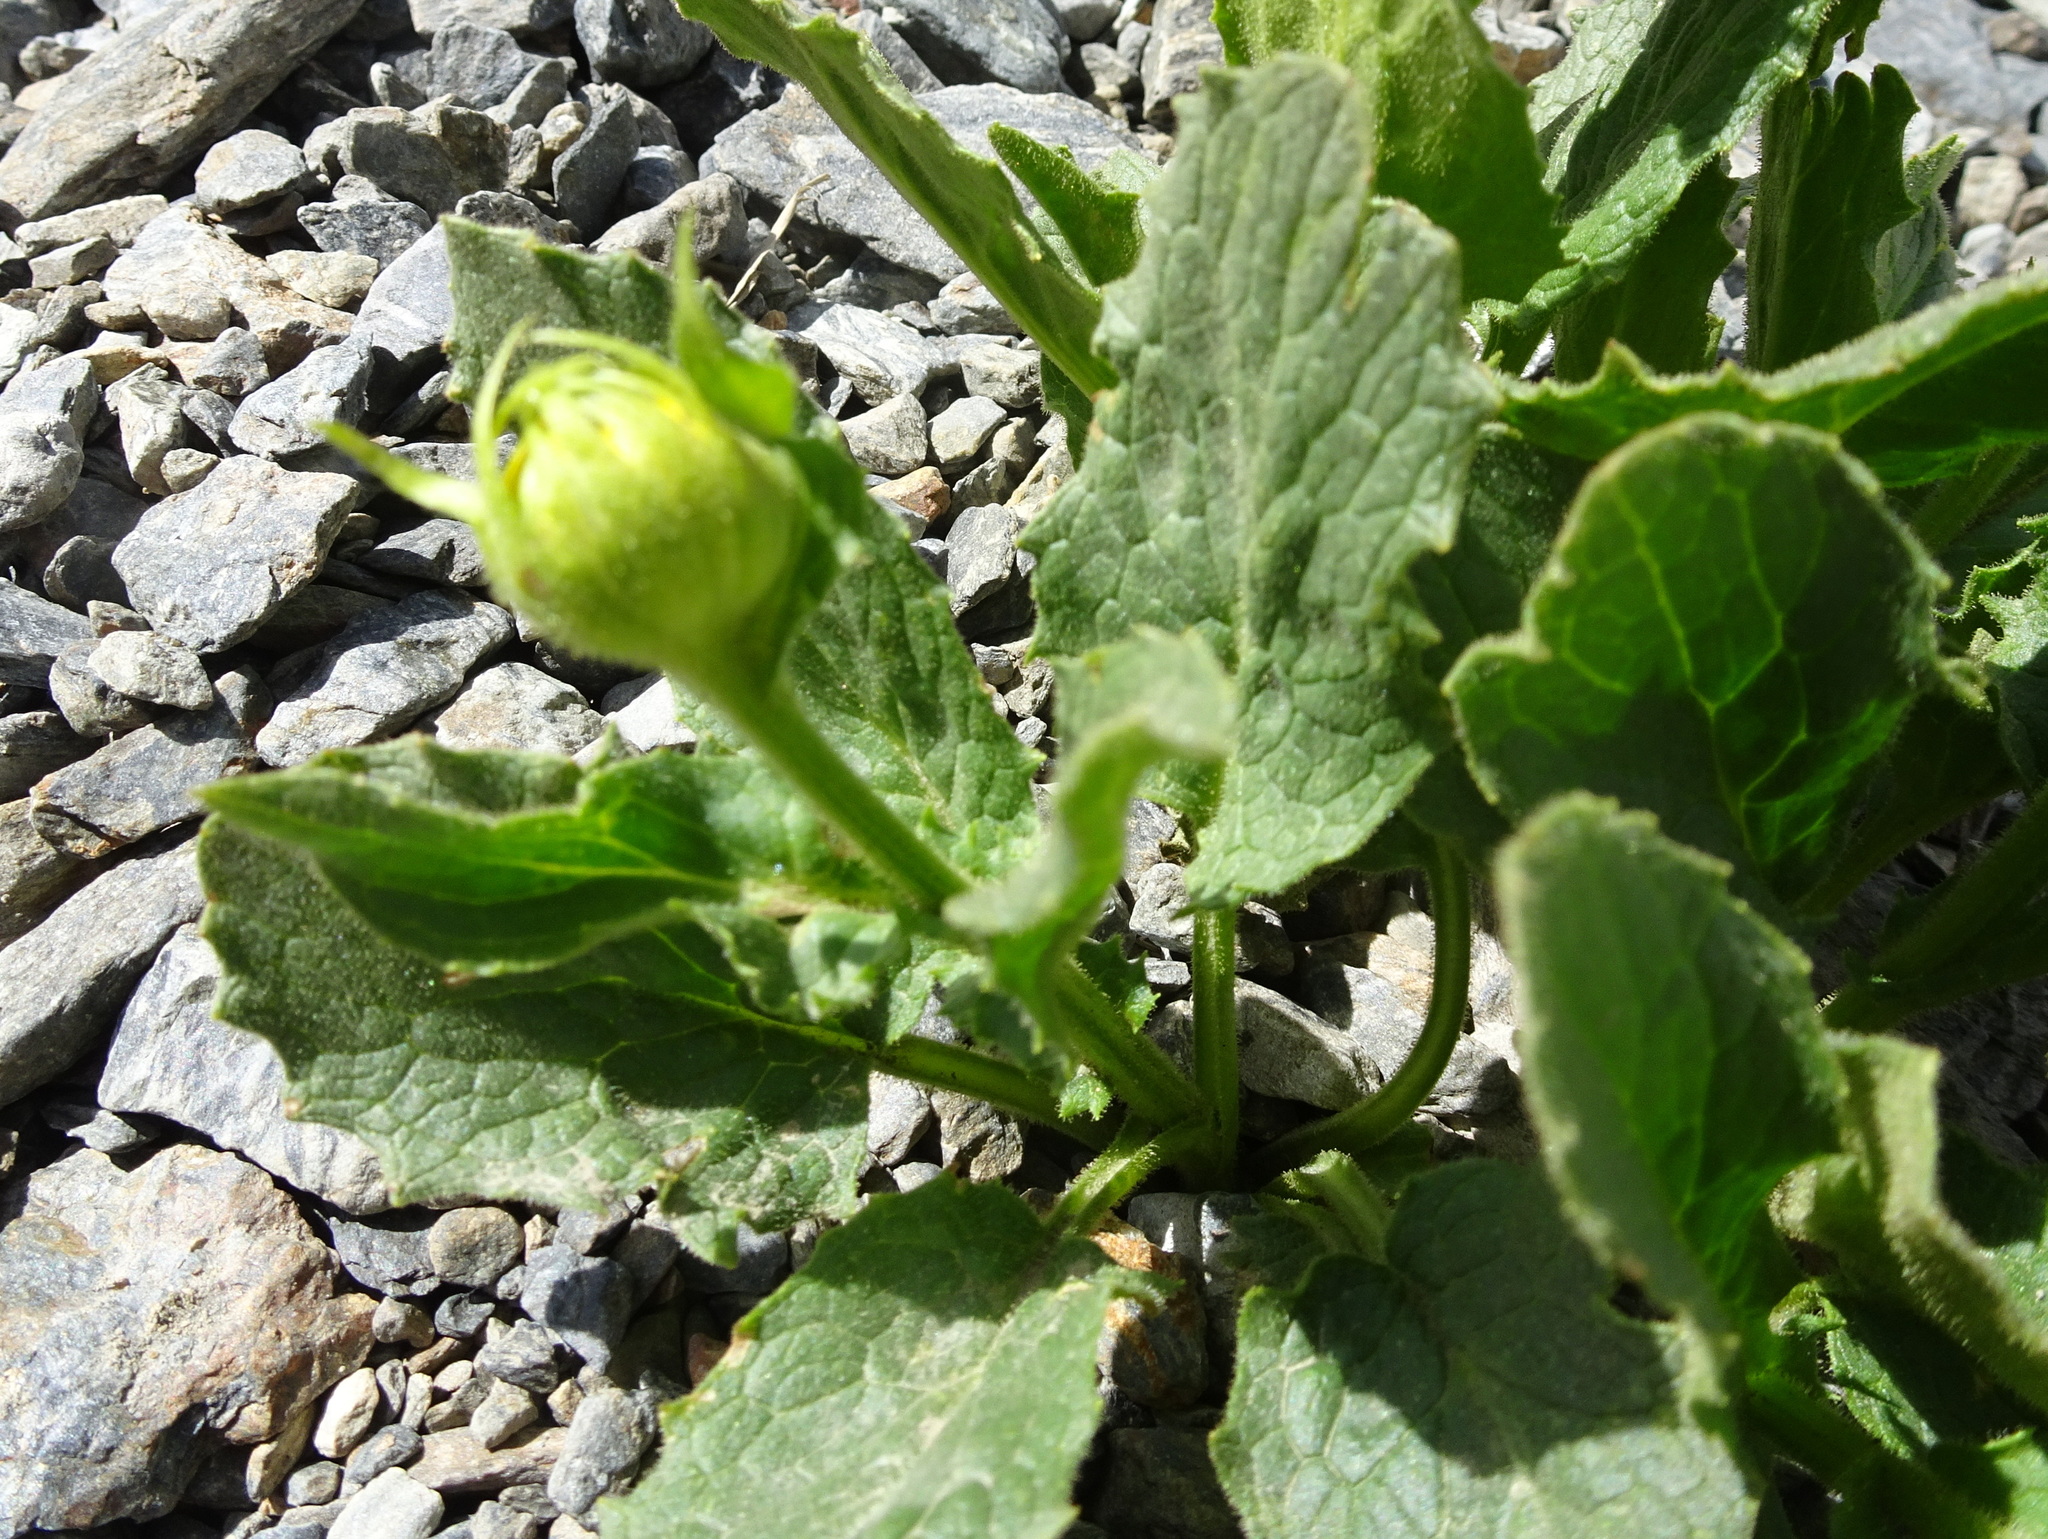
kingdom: Plantae
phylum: Tracheophyta
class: Magnoliopsida
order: Asterales
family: Asteraceae
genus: Doronicum
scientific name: Doronicum grandiflorum
